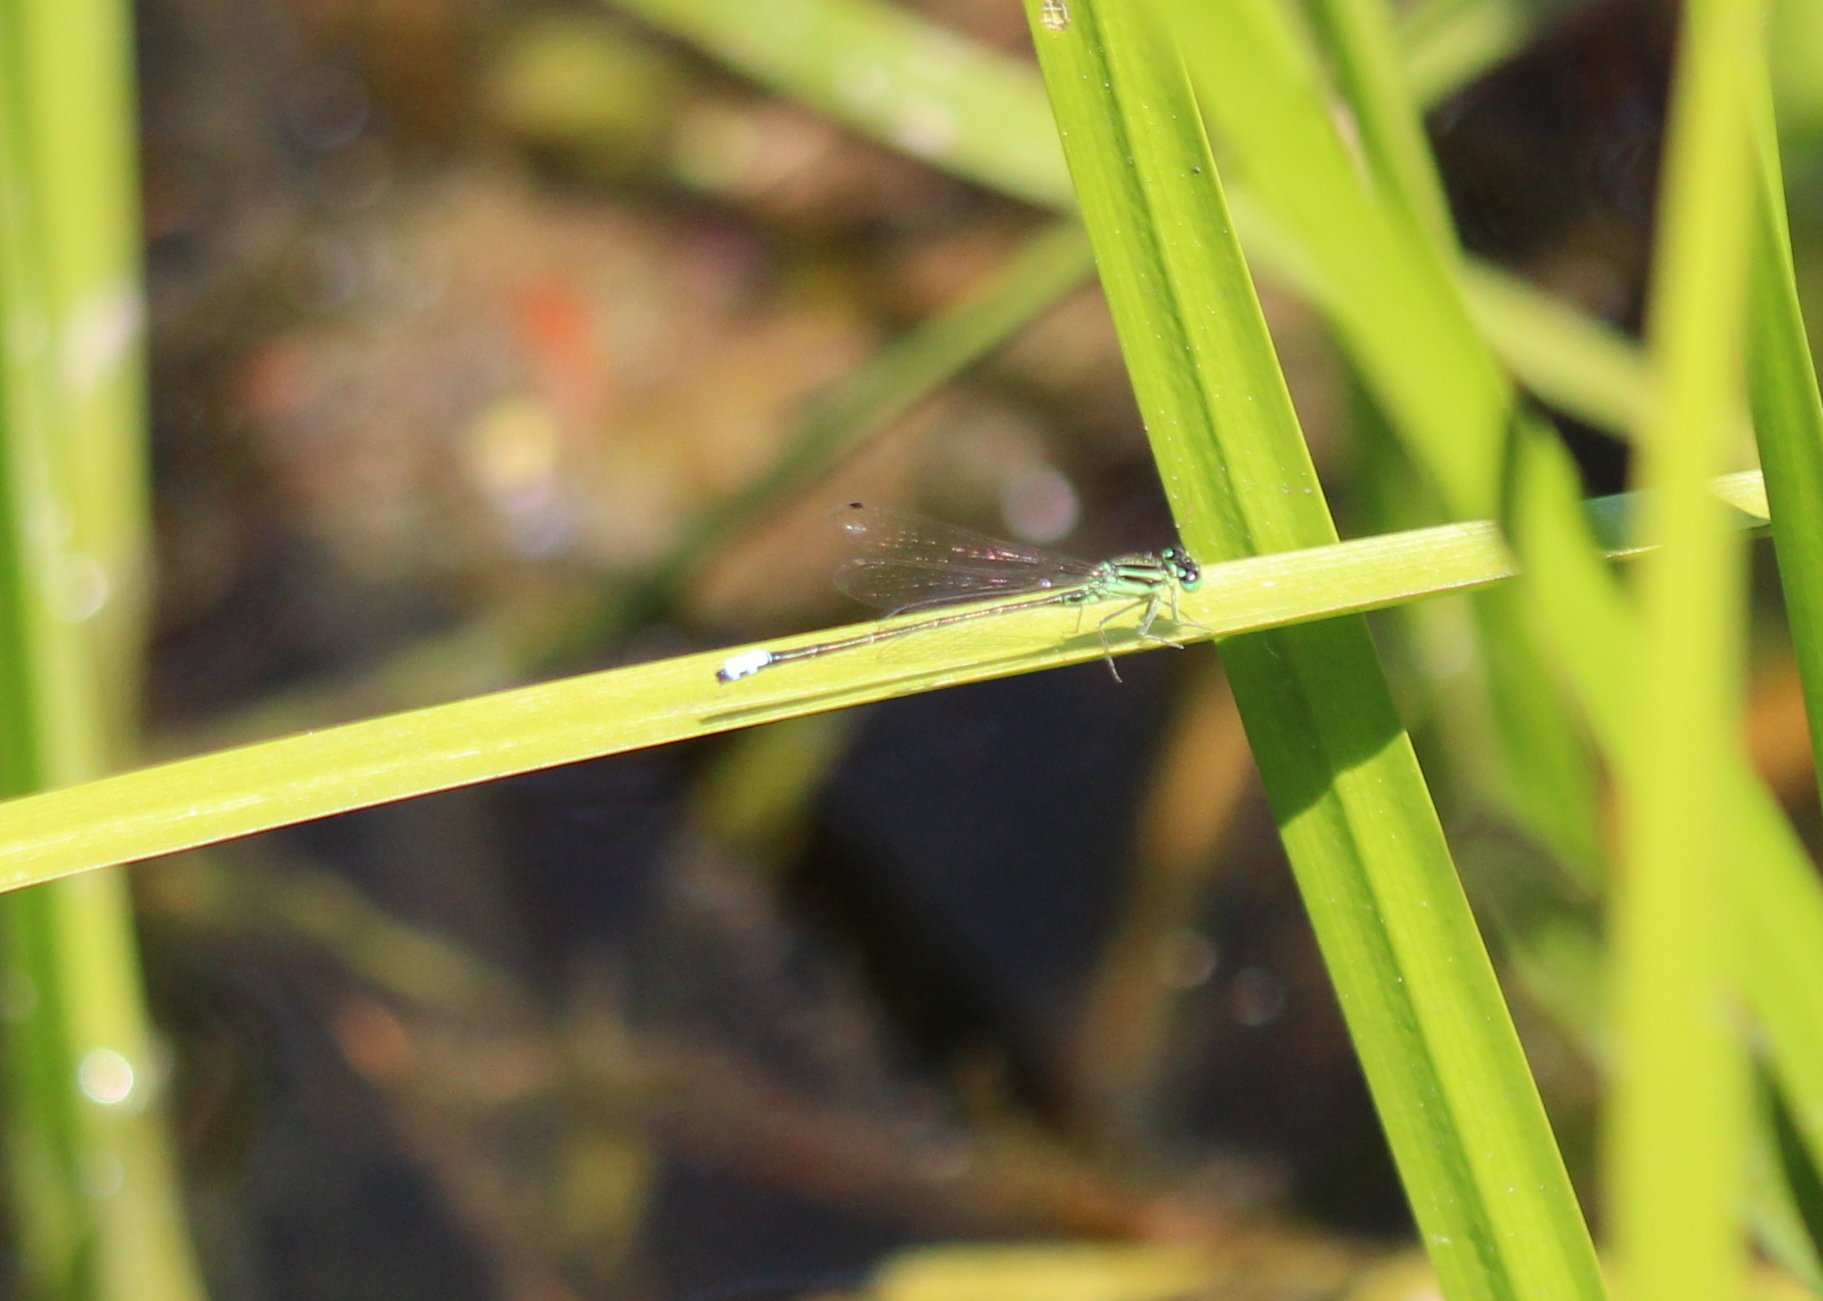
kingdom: Animalia
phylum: Arthropoda
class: Insecta
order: Odonata
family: Coenagrionidae
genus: Ischnura
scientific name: Ischnura verticalis
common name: Eastern forktail
